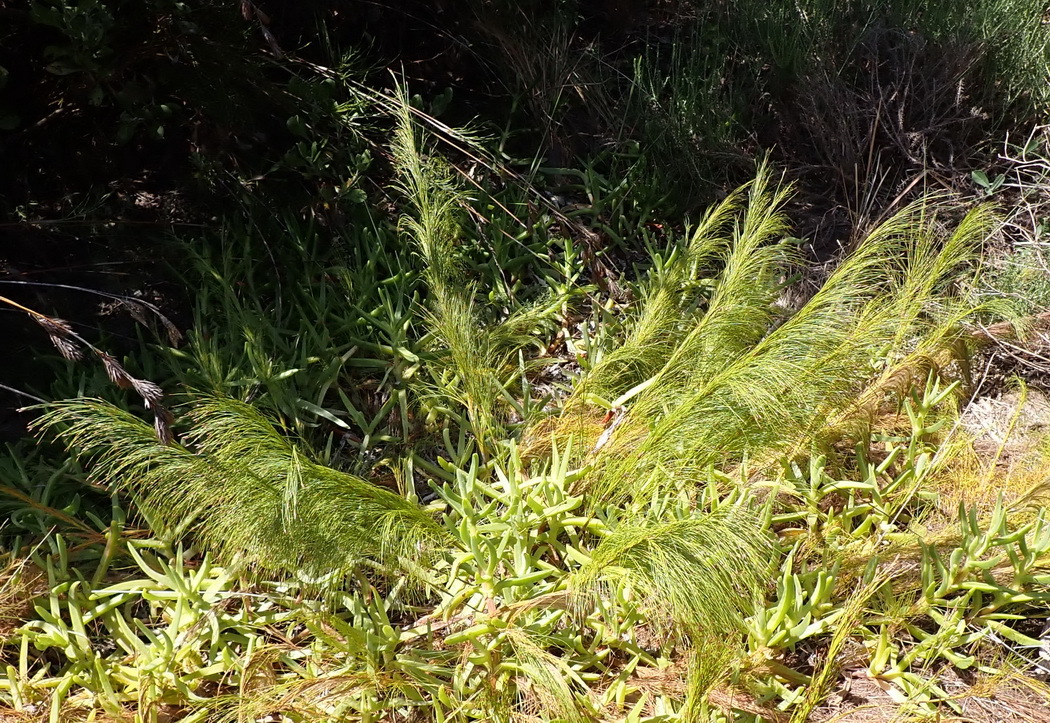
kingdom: Plantae
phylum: Tracheophyta
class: Liliopsida
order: Poales
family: Restionaceae
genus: Restio
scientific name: Restio leptoclados
